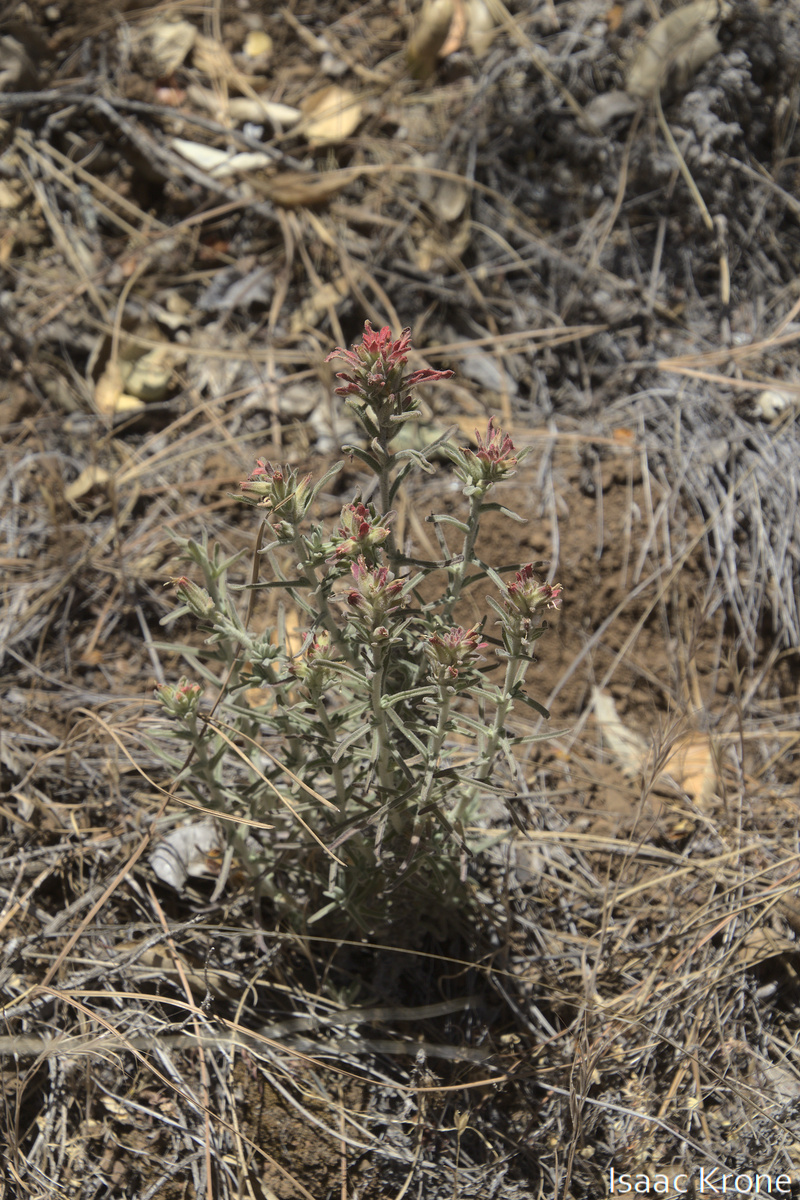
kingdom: Plantae
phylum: Tracheophyta
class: Magnoliopsida
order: Lamiales
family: Orobanchaceae
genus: Castilleja
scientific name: Castilleja foliolosa
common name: Woolly indian paintbrush
